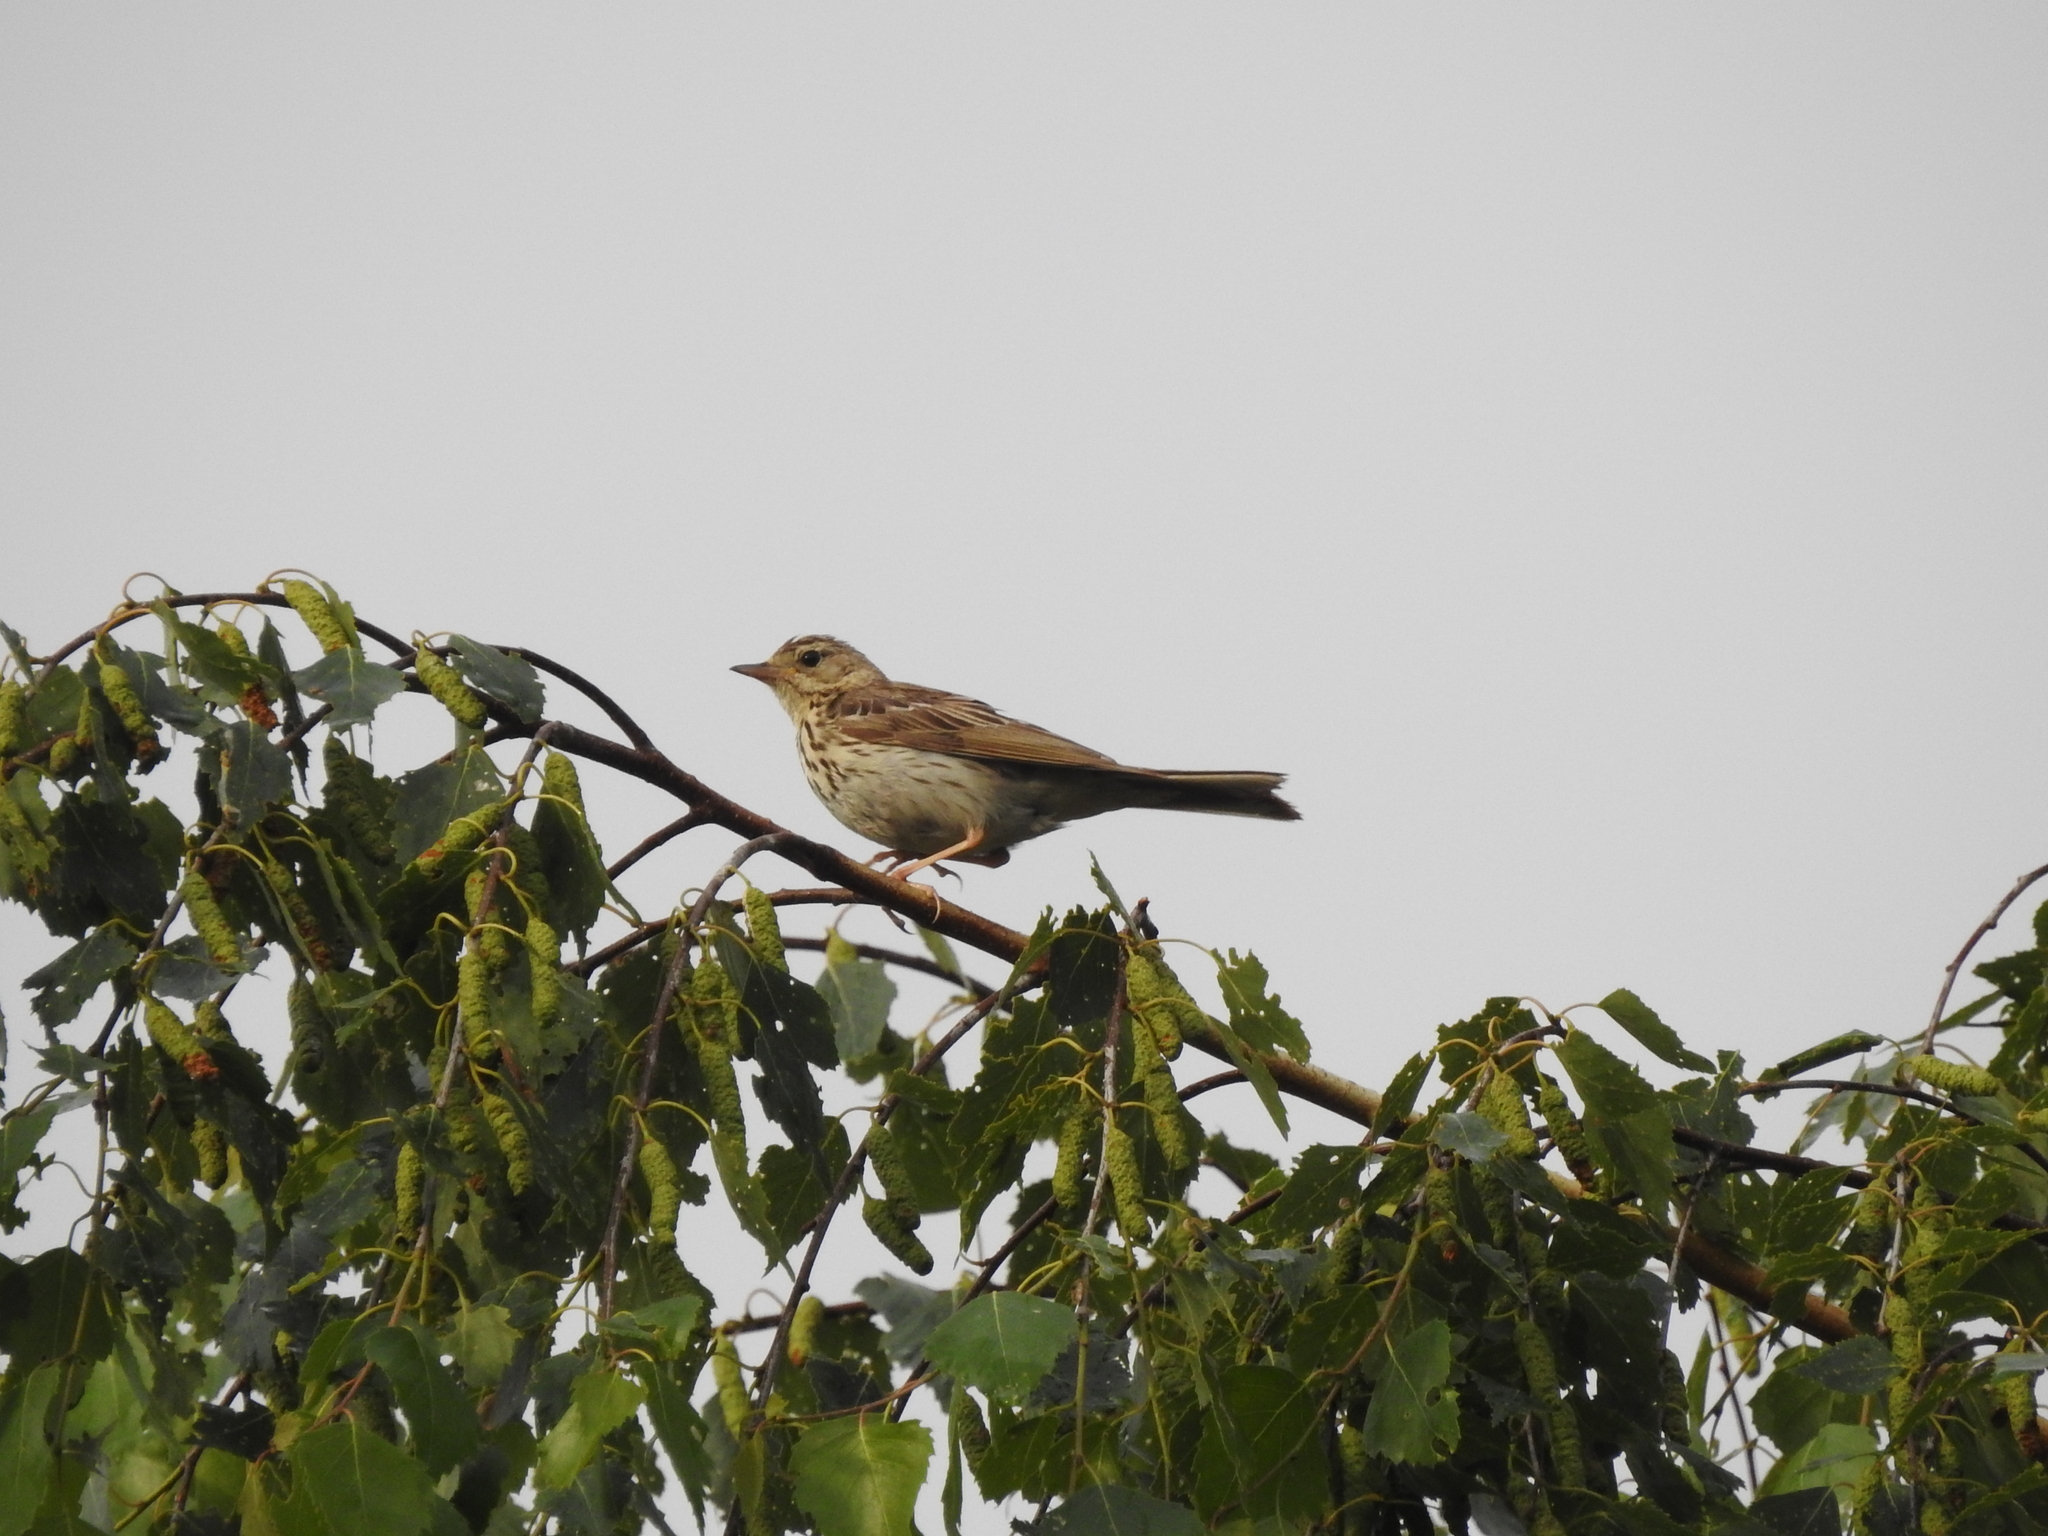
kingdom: Animalia
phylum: Chordata
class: Aves
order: Passeriformes
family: Motacillidae
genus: Anthus
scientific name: Anthus trivialis
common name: Tree pipit
